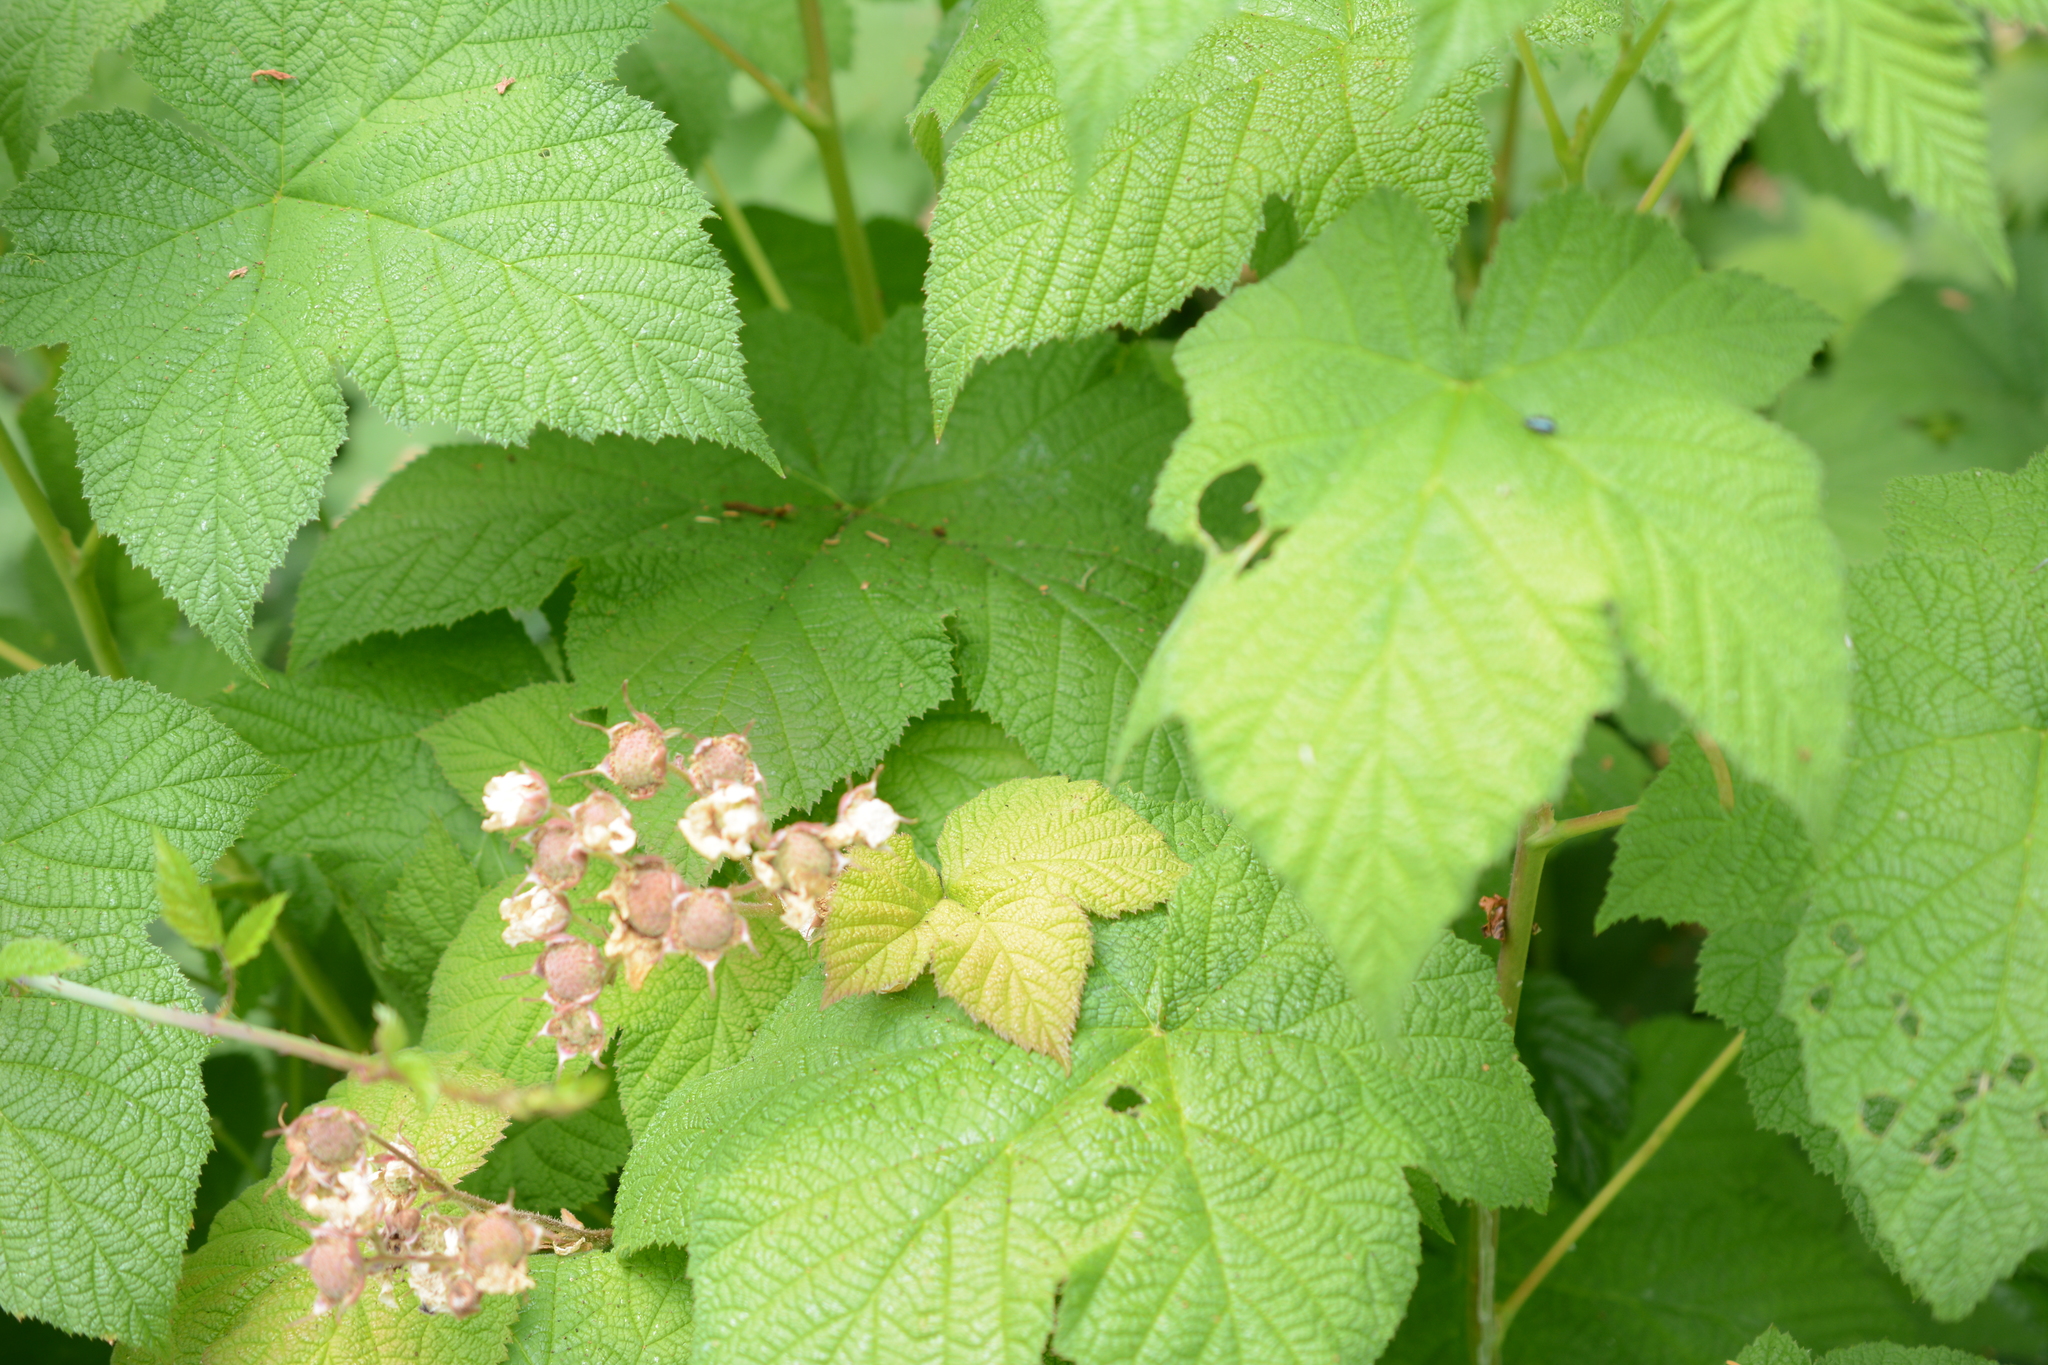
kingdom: Plantae
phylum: Tracheophyta
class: Magnoliopsida
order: Rosales
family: Rosaceae
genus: Rubus
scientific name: Rubus parviflorus
